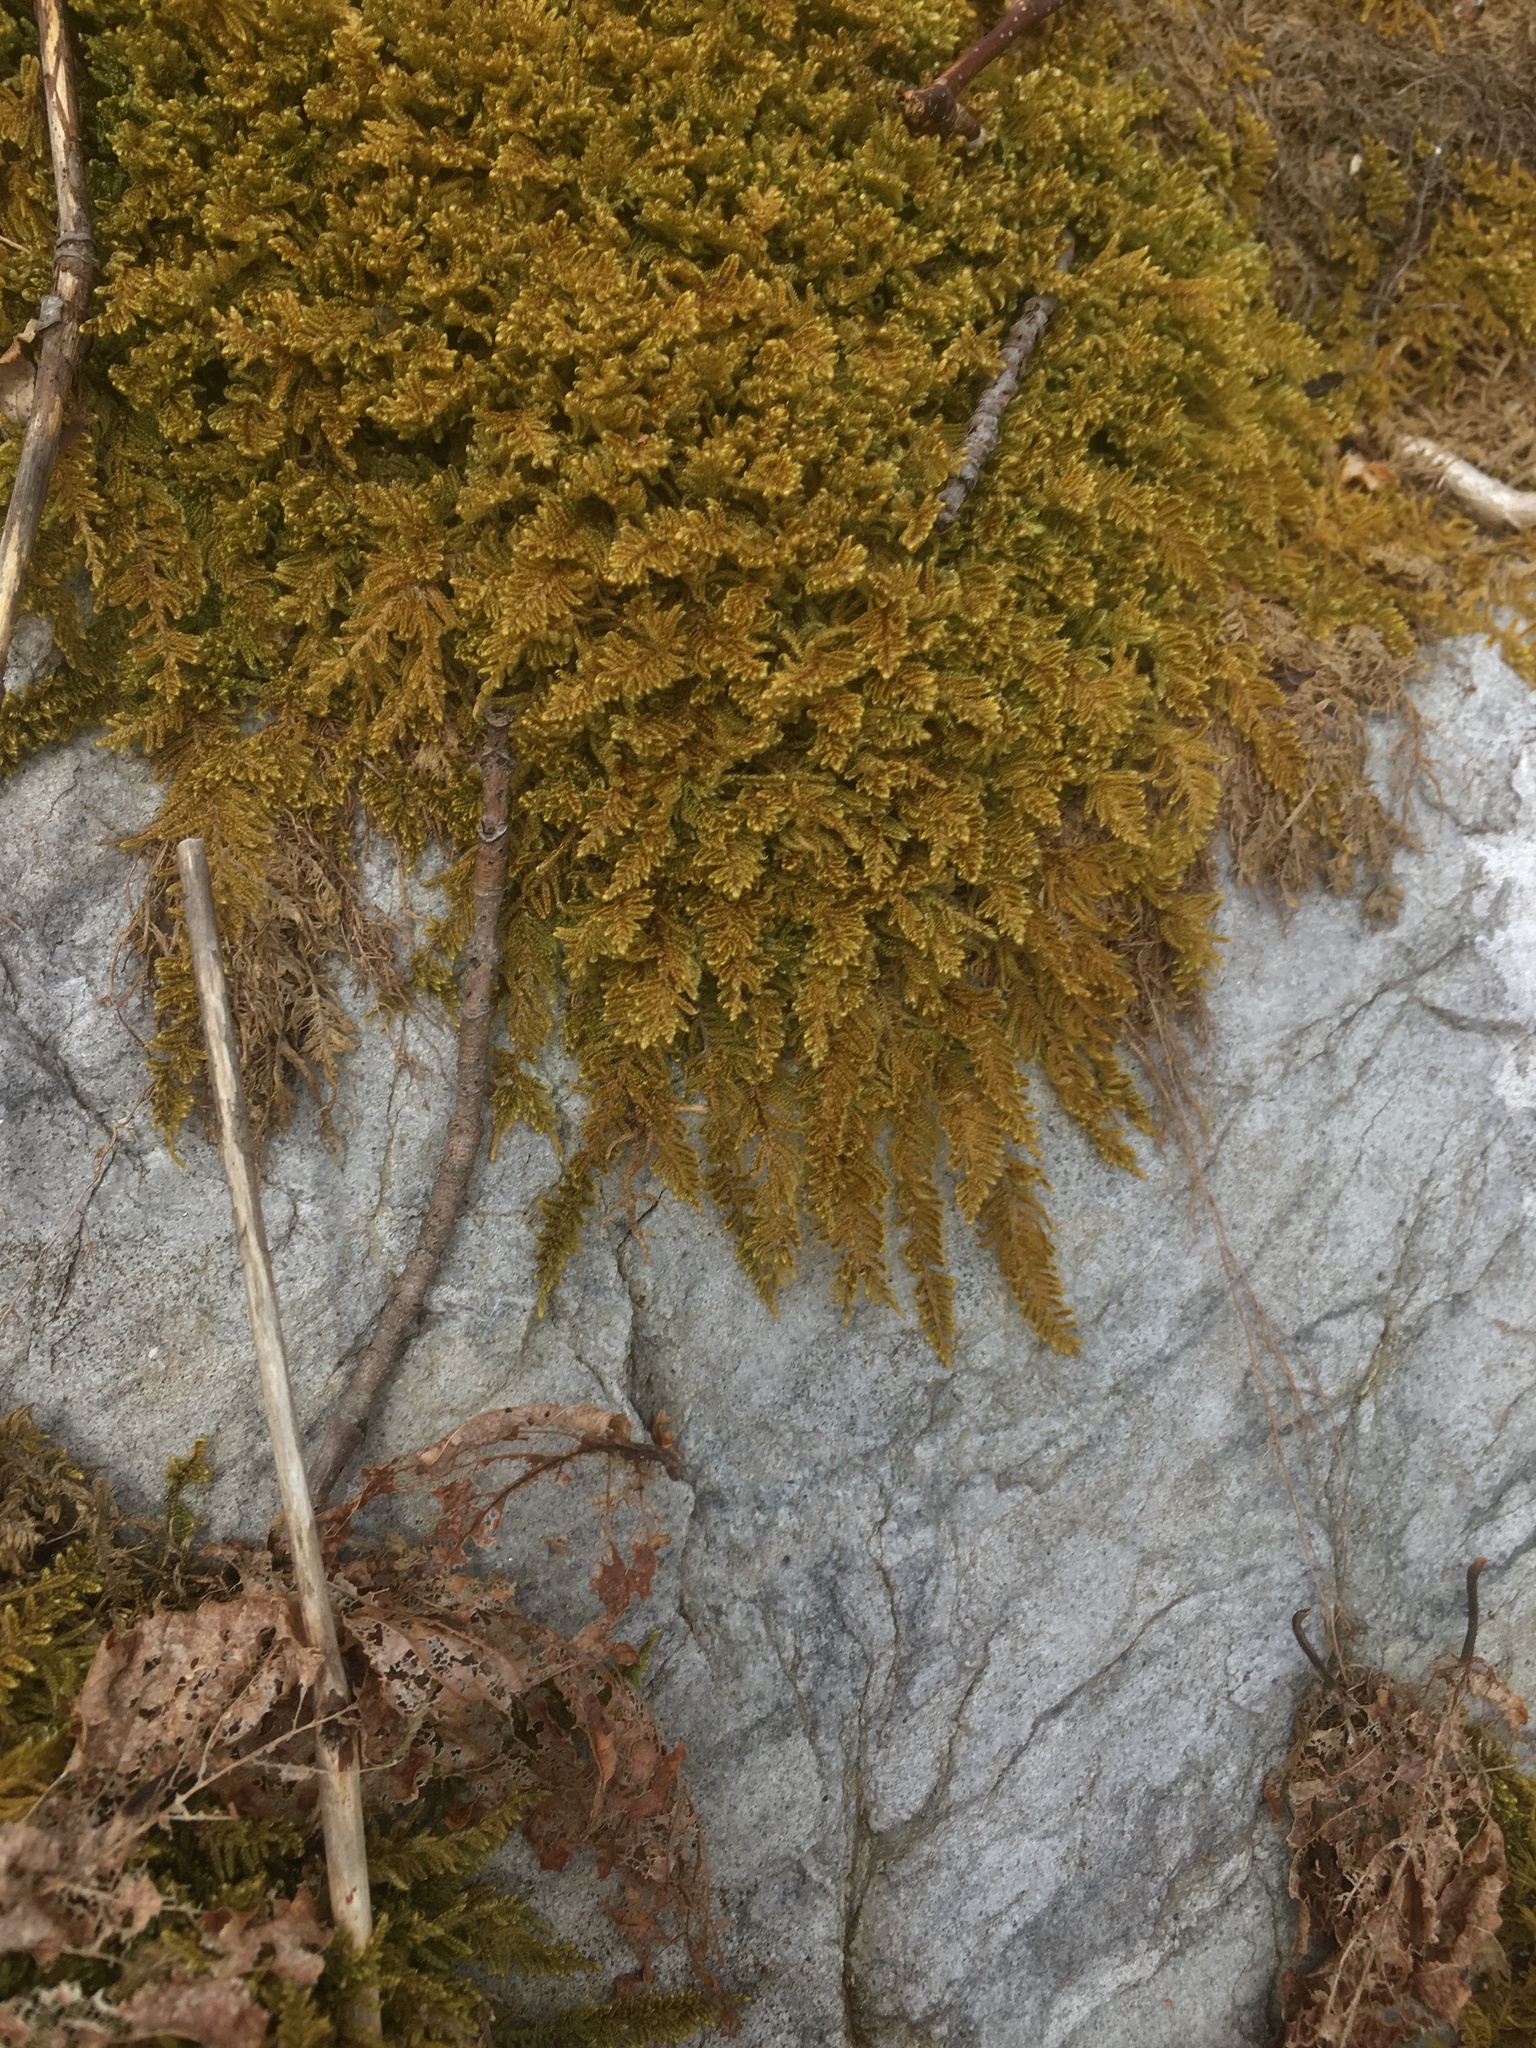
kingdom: Plantae
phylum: Bryophyta
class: Bryopsida
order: Hypnales
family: Callicladiaceae
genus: Callicladium
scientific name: Callicladium imponens
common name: Brocade moss
